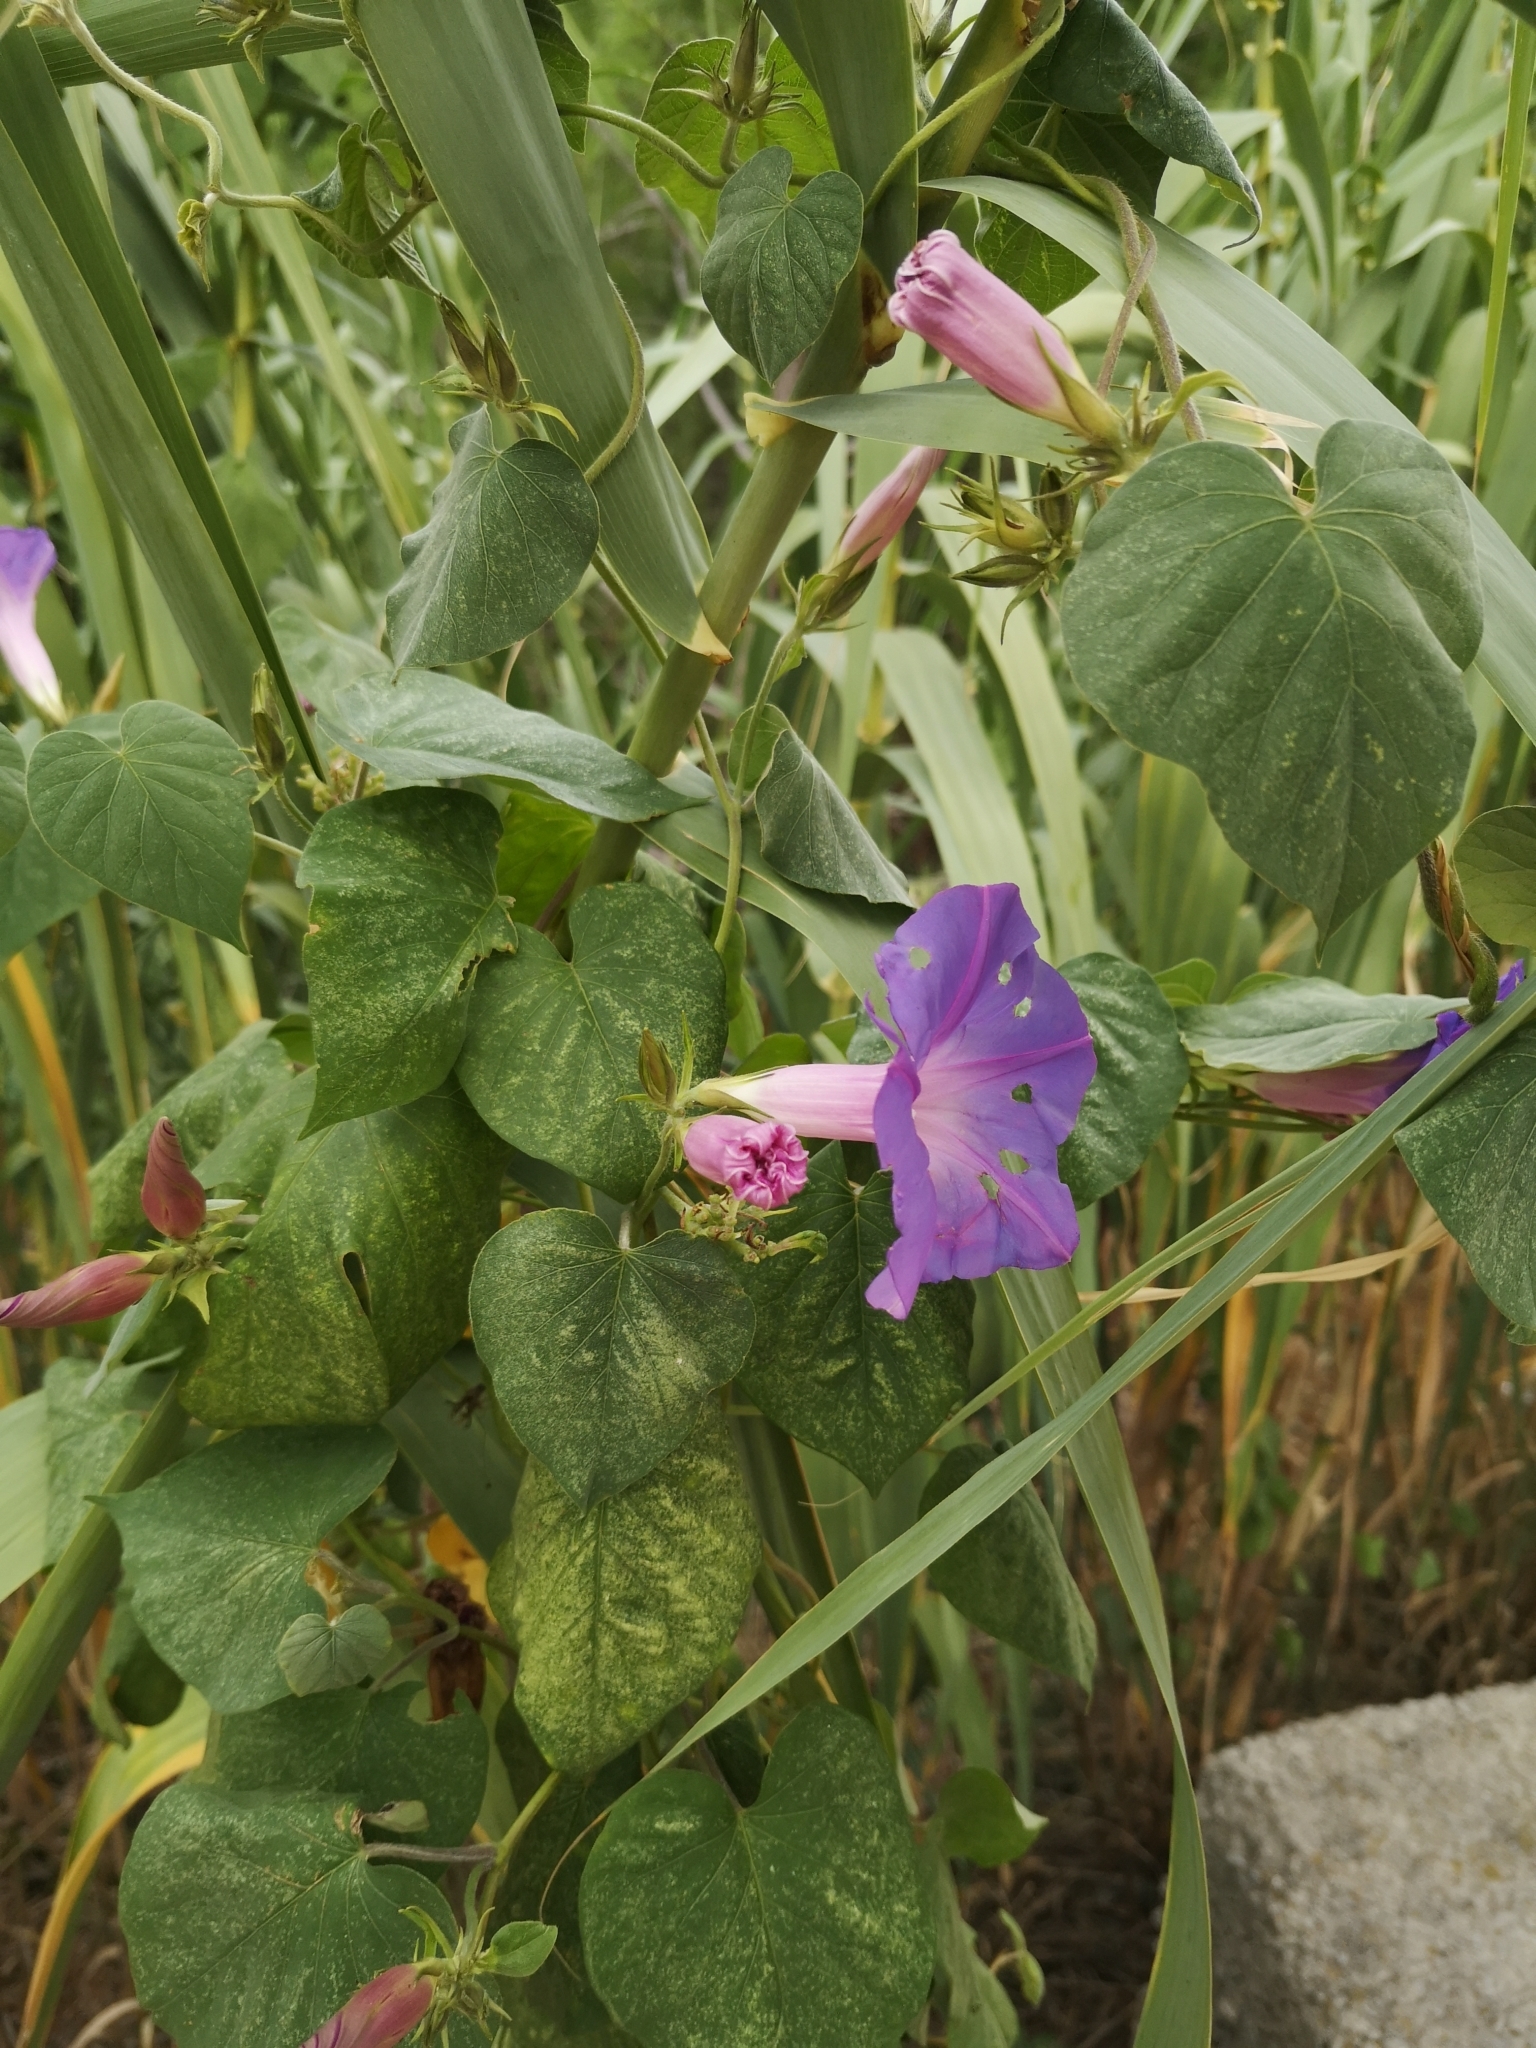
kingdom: Plantae
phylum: Tracheophyta
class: Magnoliopsida
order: Solanales
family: Convolvulaceae
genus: Ipomoea
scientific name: Ipomoea indica
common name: Blue dawnflower
